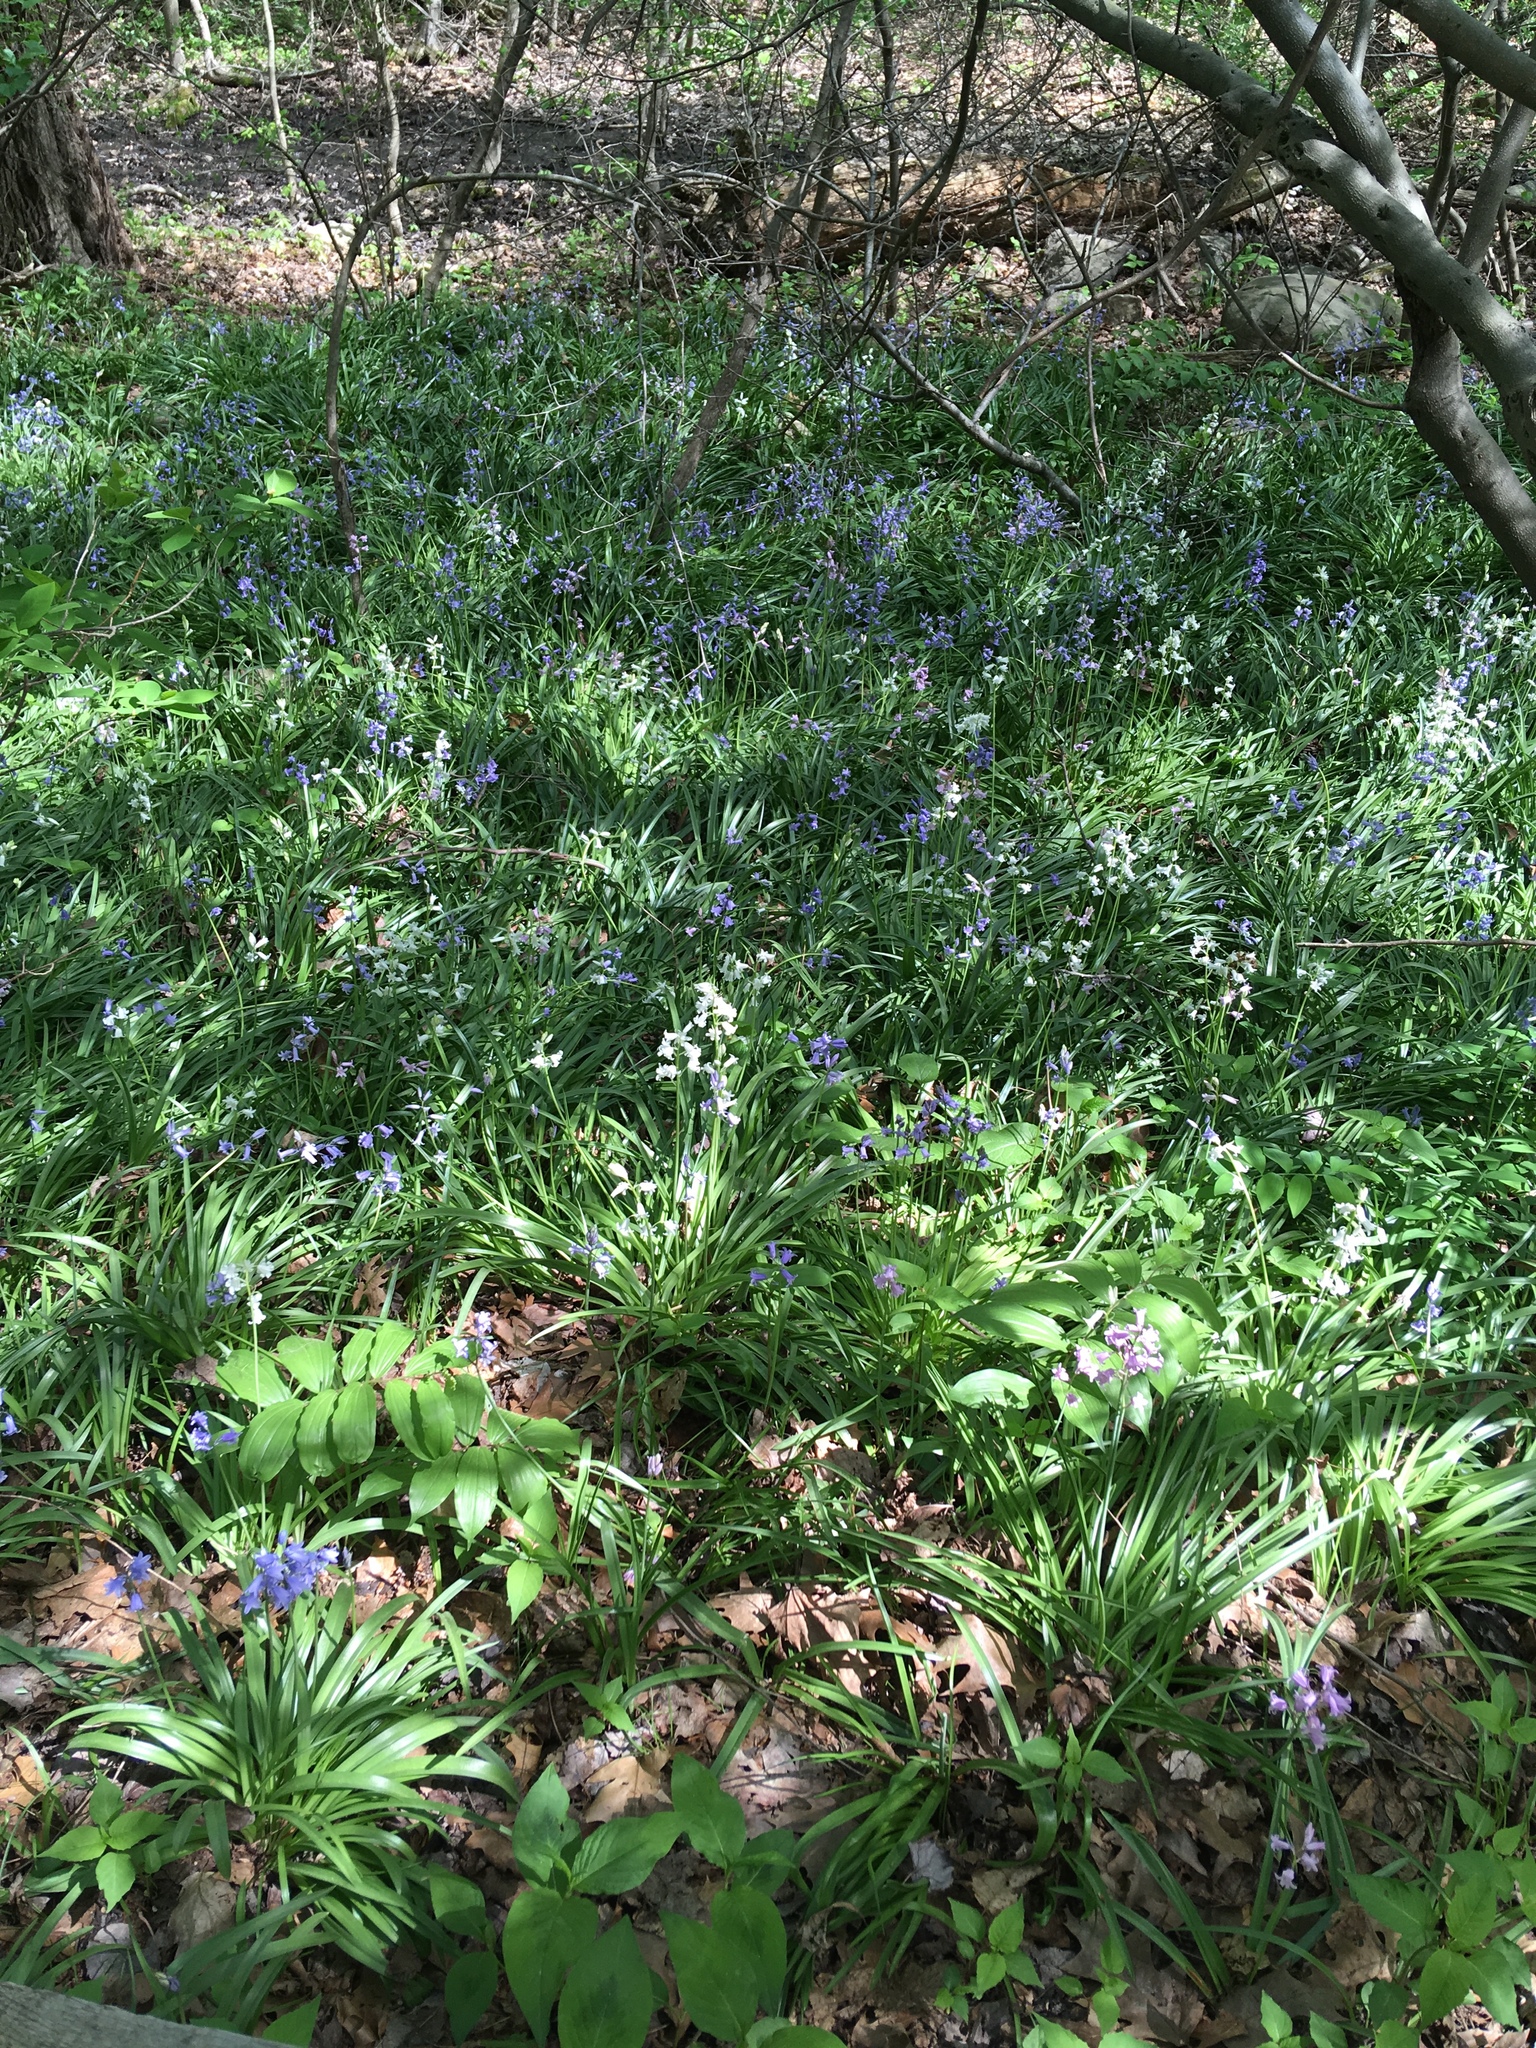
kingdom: Plantae
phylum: Tracheophyta
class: Liliopsida
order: Asparagales
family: Asparagaceae
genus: Hyacinthoides
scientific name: Hyacinthoides hispanica
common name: Spanish bluebell
